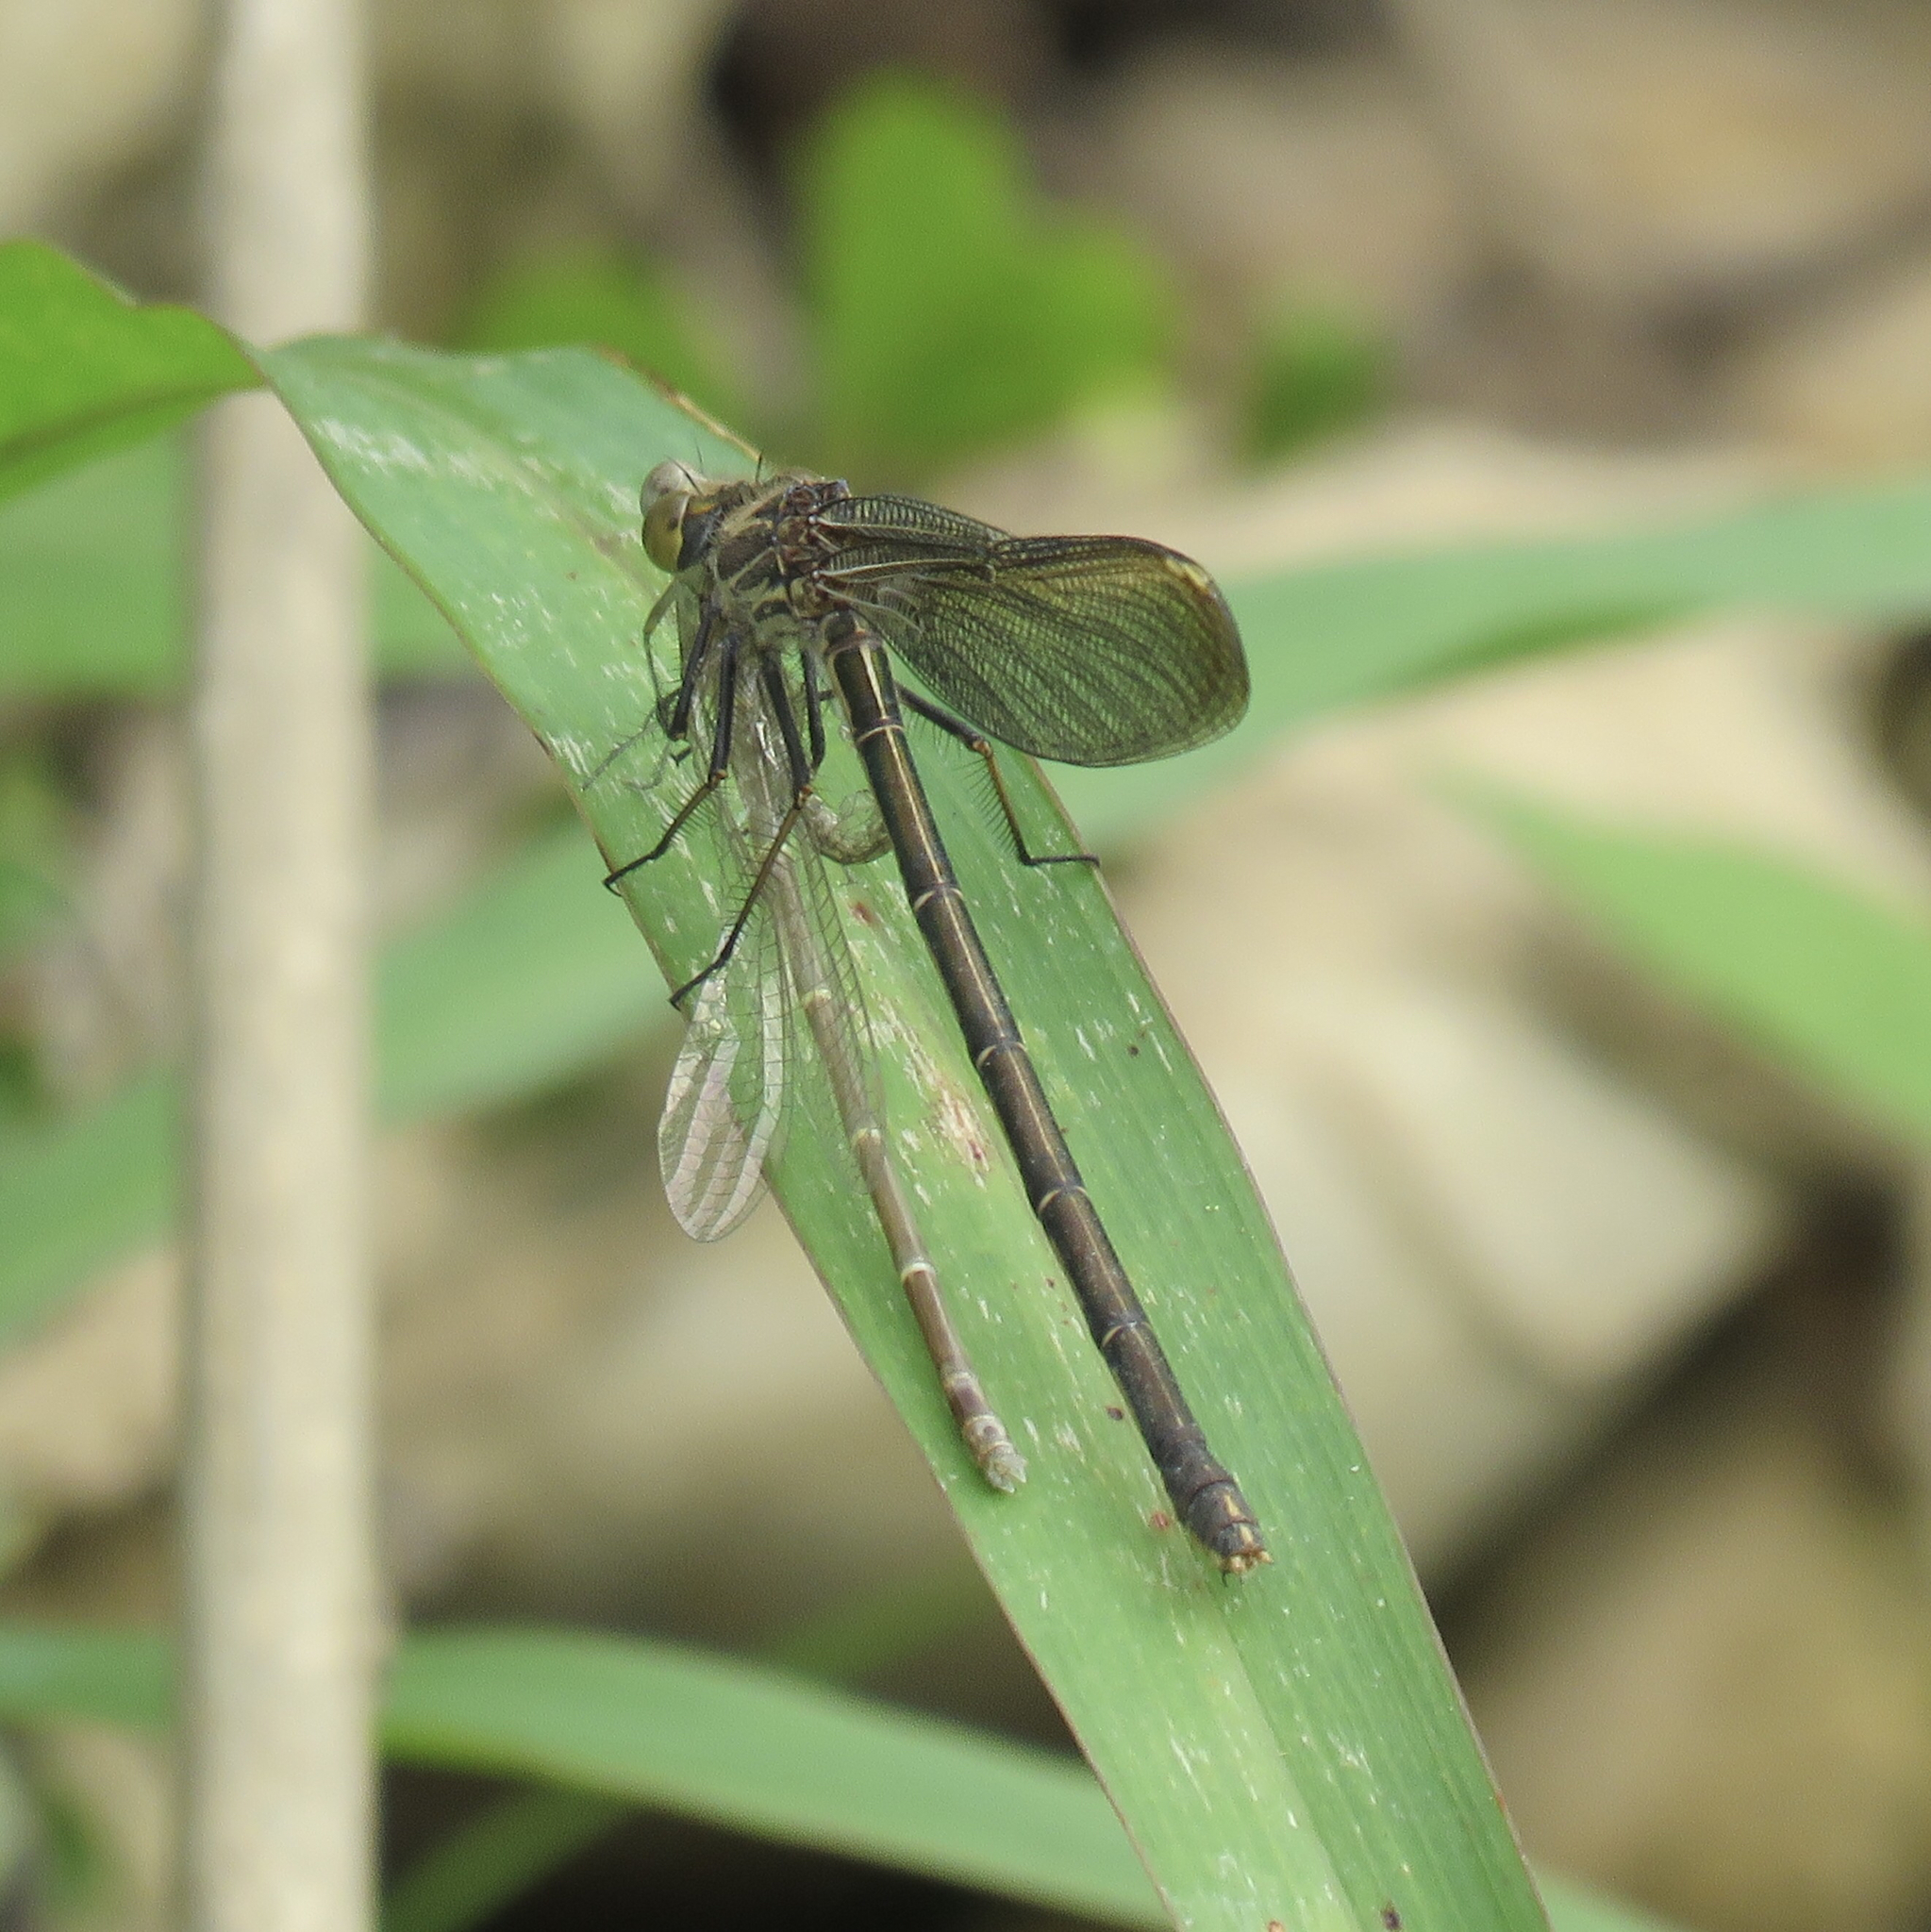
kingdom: Animalia
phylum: Arthropoda
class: Insecta
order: Odonata
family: Calopterygidae
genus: Hetaerina
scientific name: Hetaerina americana
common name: American rubyspot
